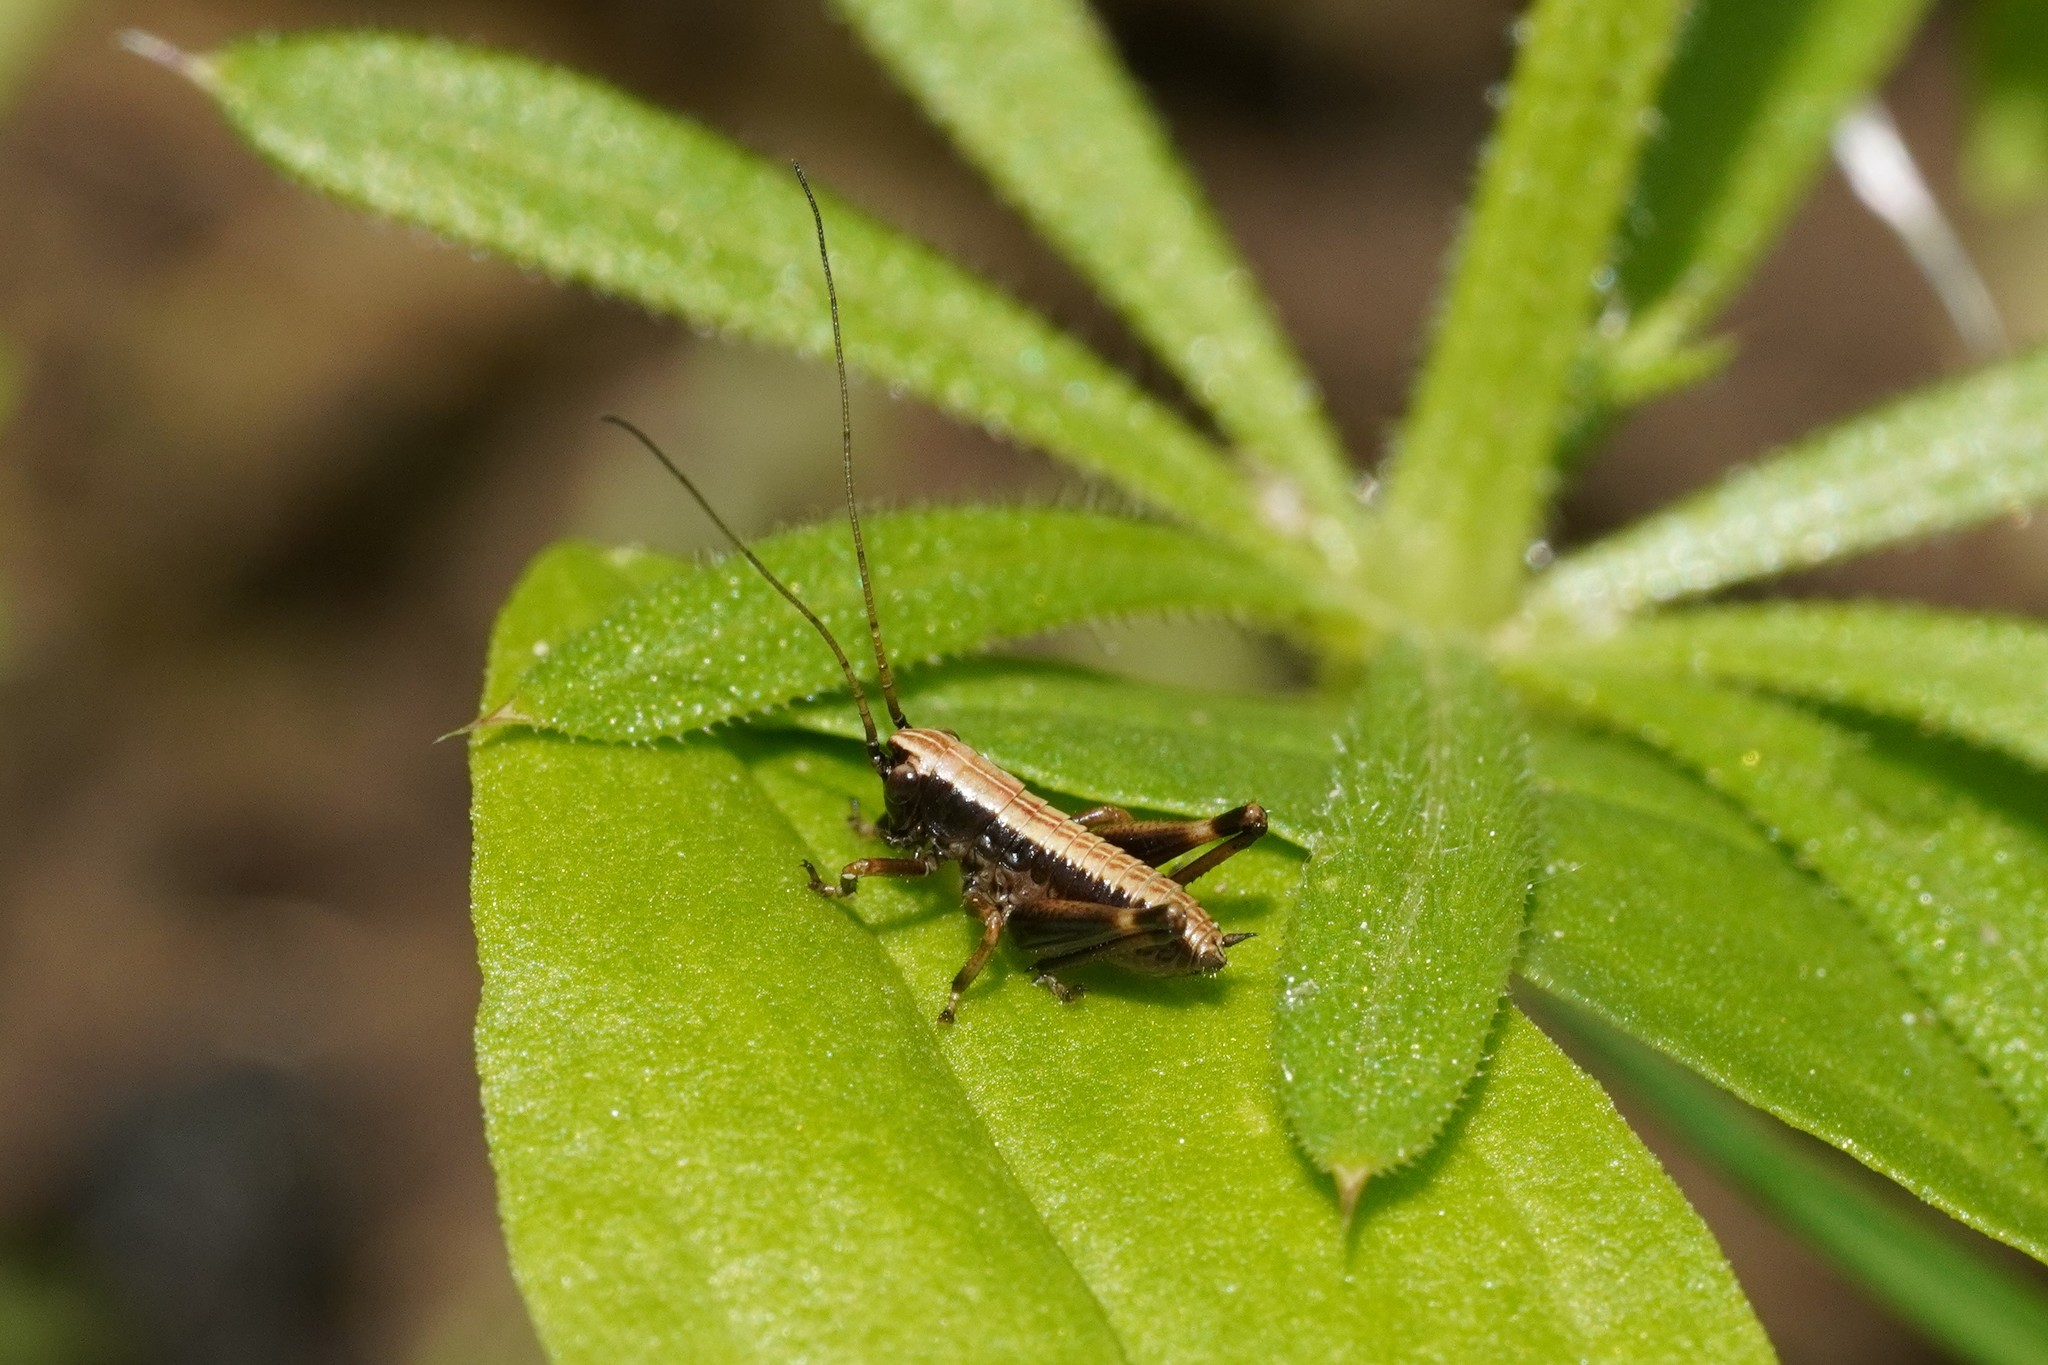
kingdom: Animalia
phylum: Arthropoda
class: Insecta
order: Orthoptera
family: Tettigoniidae
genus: Pholidoptera
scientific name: Pholidoptera griseoaptera
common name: Dark bush-cricket
